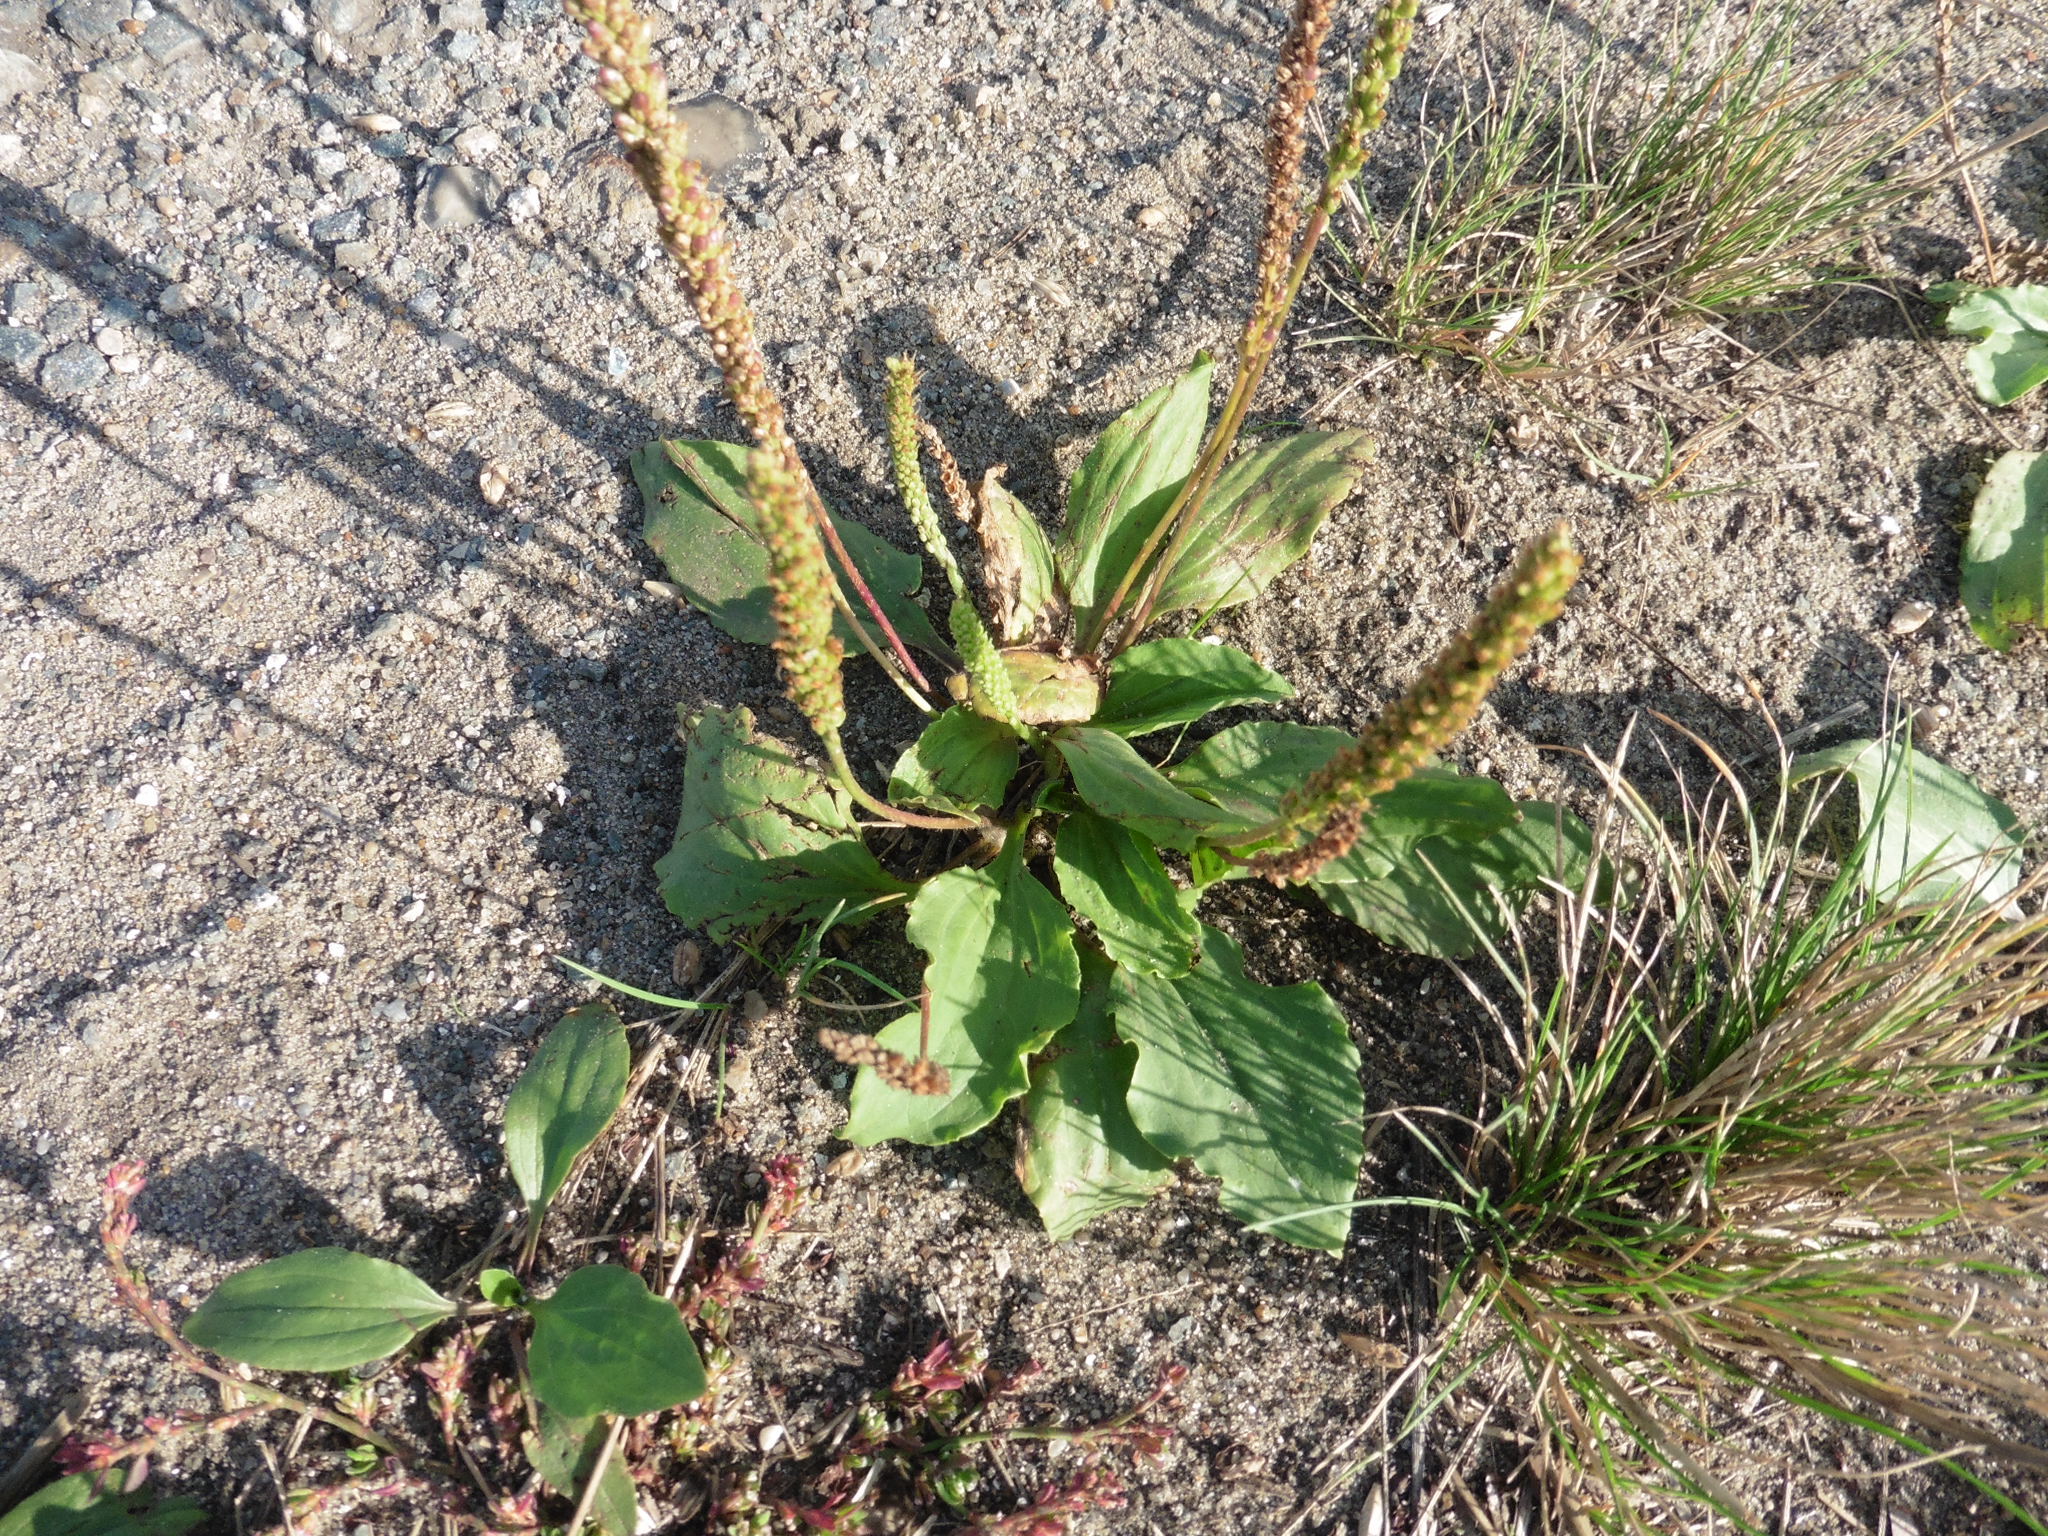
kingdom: Plantae
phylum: Tracheophyta
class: Magnoliopsida
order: Lamiales
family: Plantaginaceae
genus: Plantago
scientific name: Plantago major
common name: Common plantain
